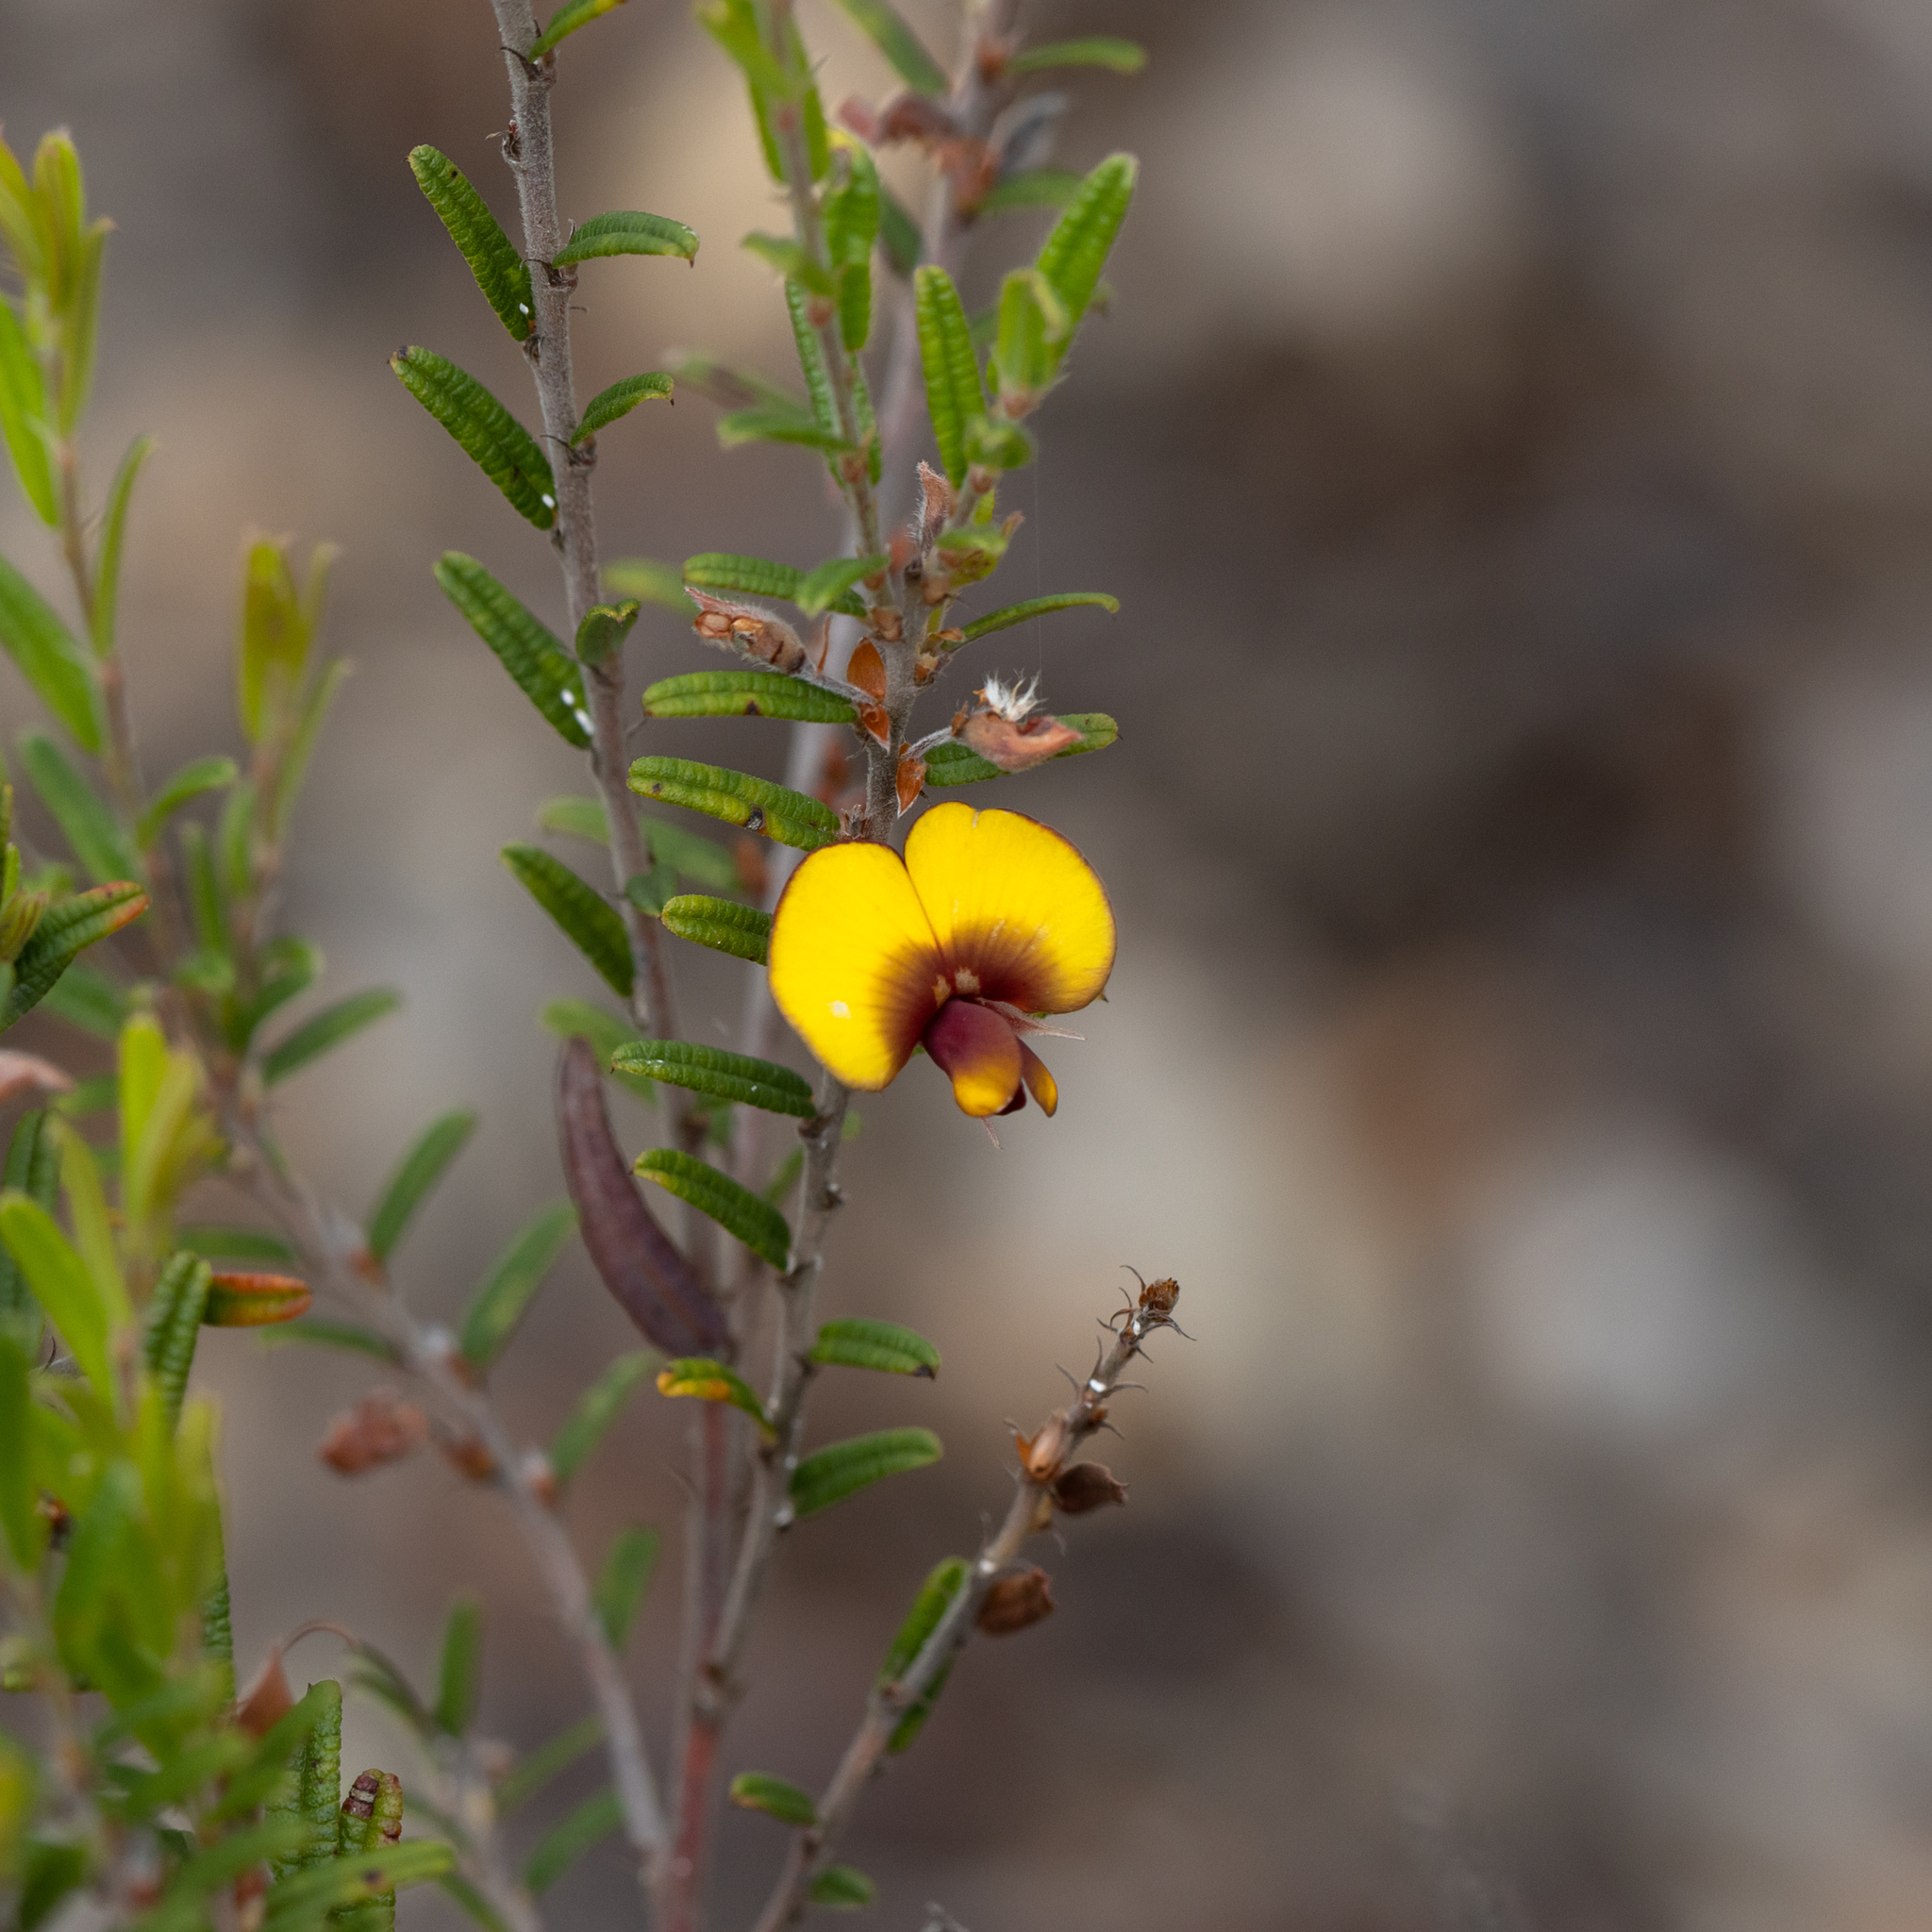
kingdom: Plantae
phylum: Tracheophyta
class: Magnoliopsida
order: Fabales
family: Fabaceae
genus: Bossiaea
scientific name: Bossiaea eriocarpa
